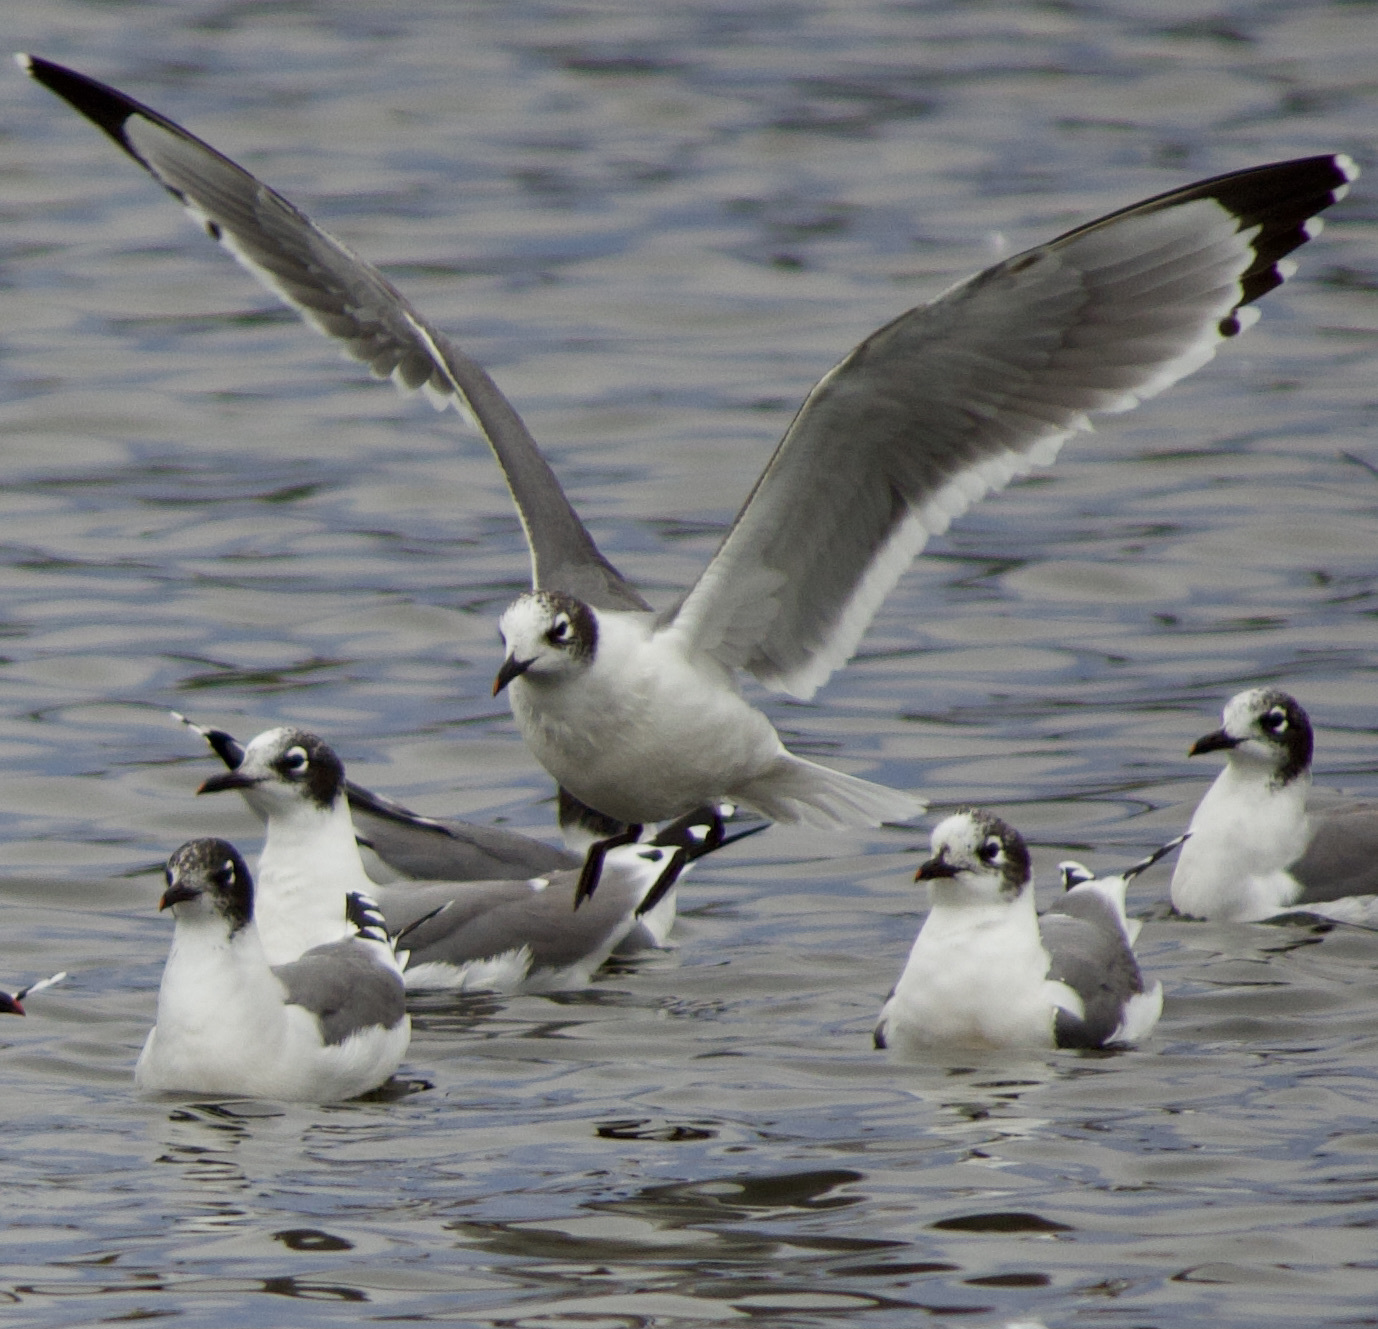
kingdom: Animalia
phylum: Chordata
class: Aves
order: Charadriiformes
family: Laridae
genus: Leucophaeus
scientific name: Leucophaeus pipixcan
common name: Franklin's gull
